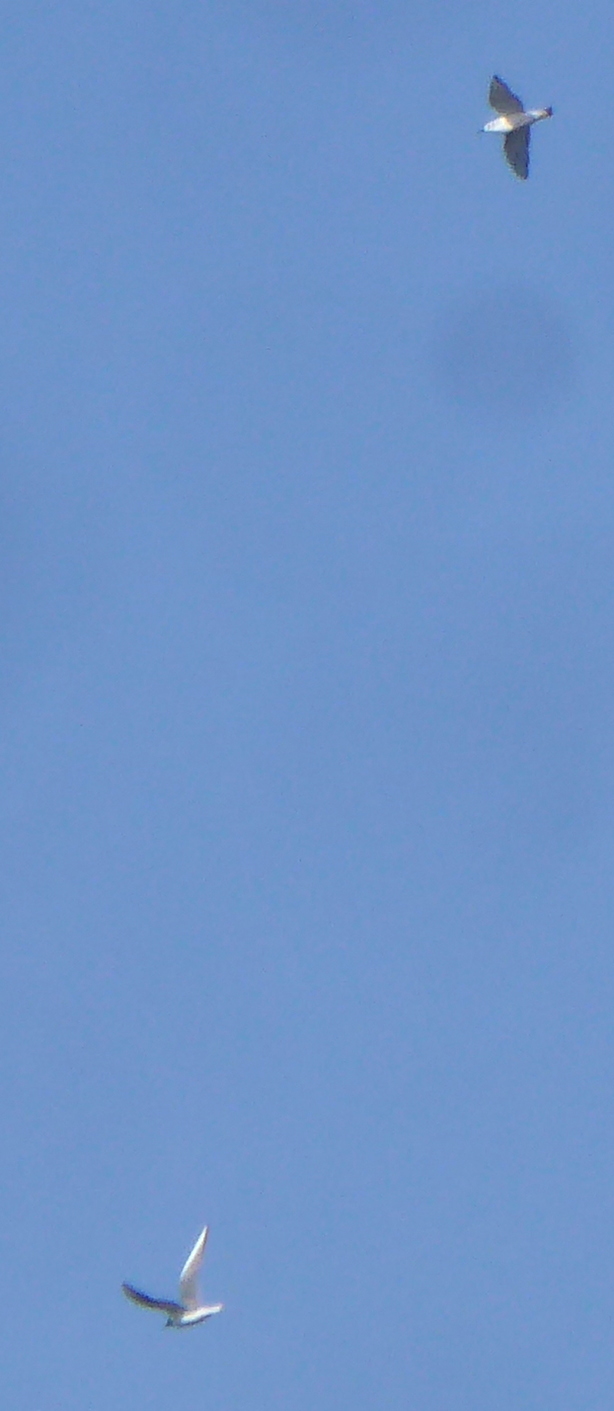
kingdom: Animalia
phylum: Chordata
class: Aves
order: Charadriiformes
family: Laridae
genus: Chroicocephalus
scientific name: Chroicocephalus philadelphia
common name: Bonaparte's gull
